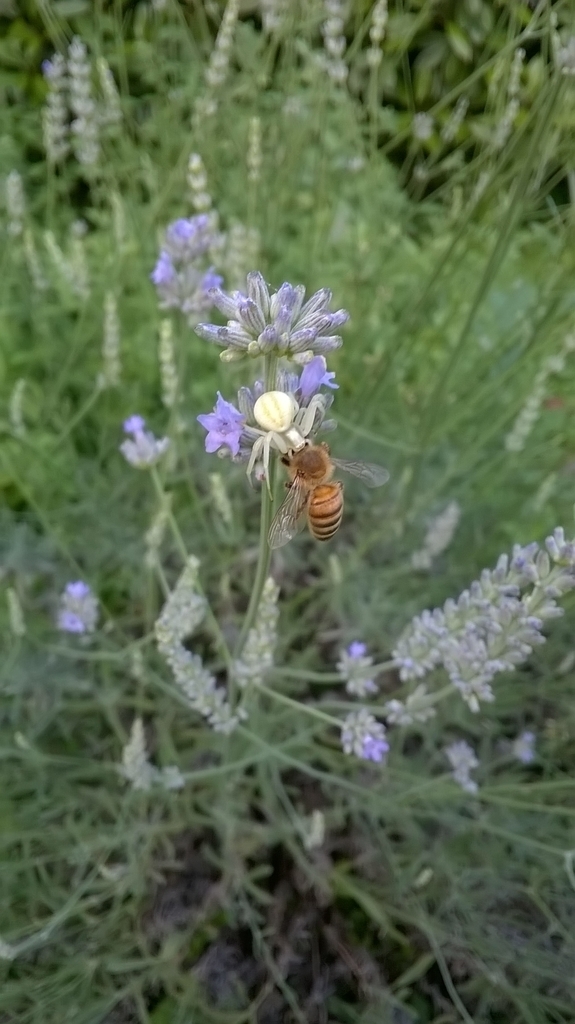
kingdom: Animalia
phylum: Arthropoda
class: Arachnida
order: Araneae
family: Thomisidae
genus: Misumena
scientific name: Misumena vatia
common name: Goldenrod crab spider
